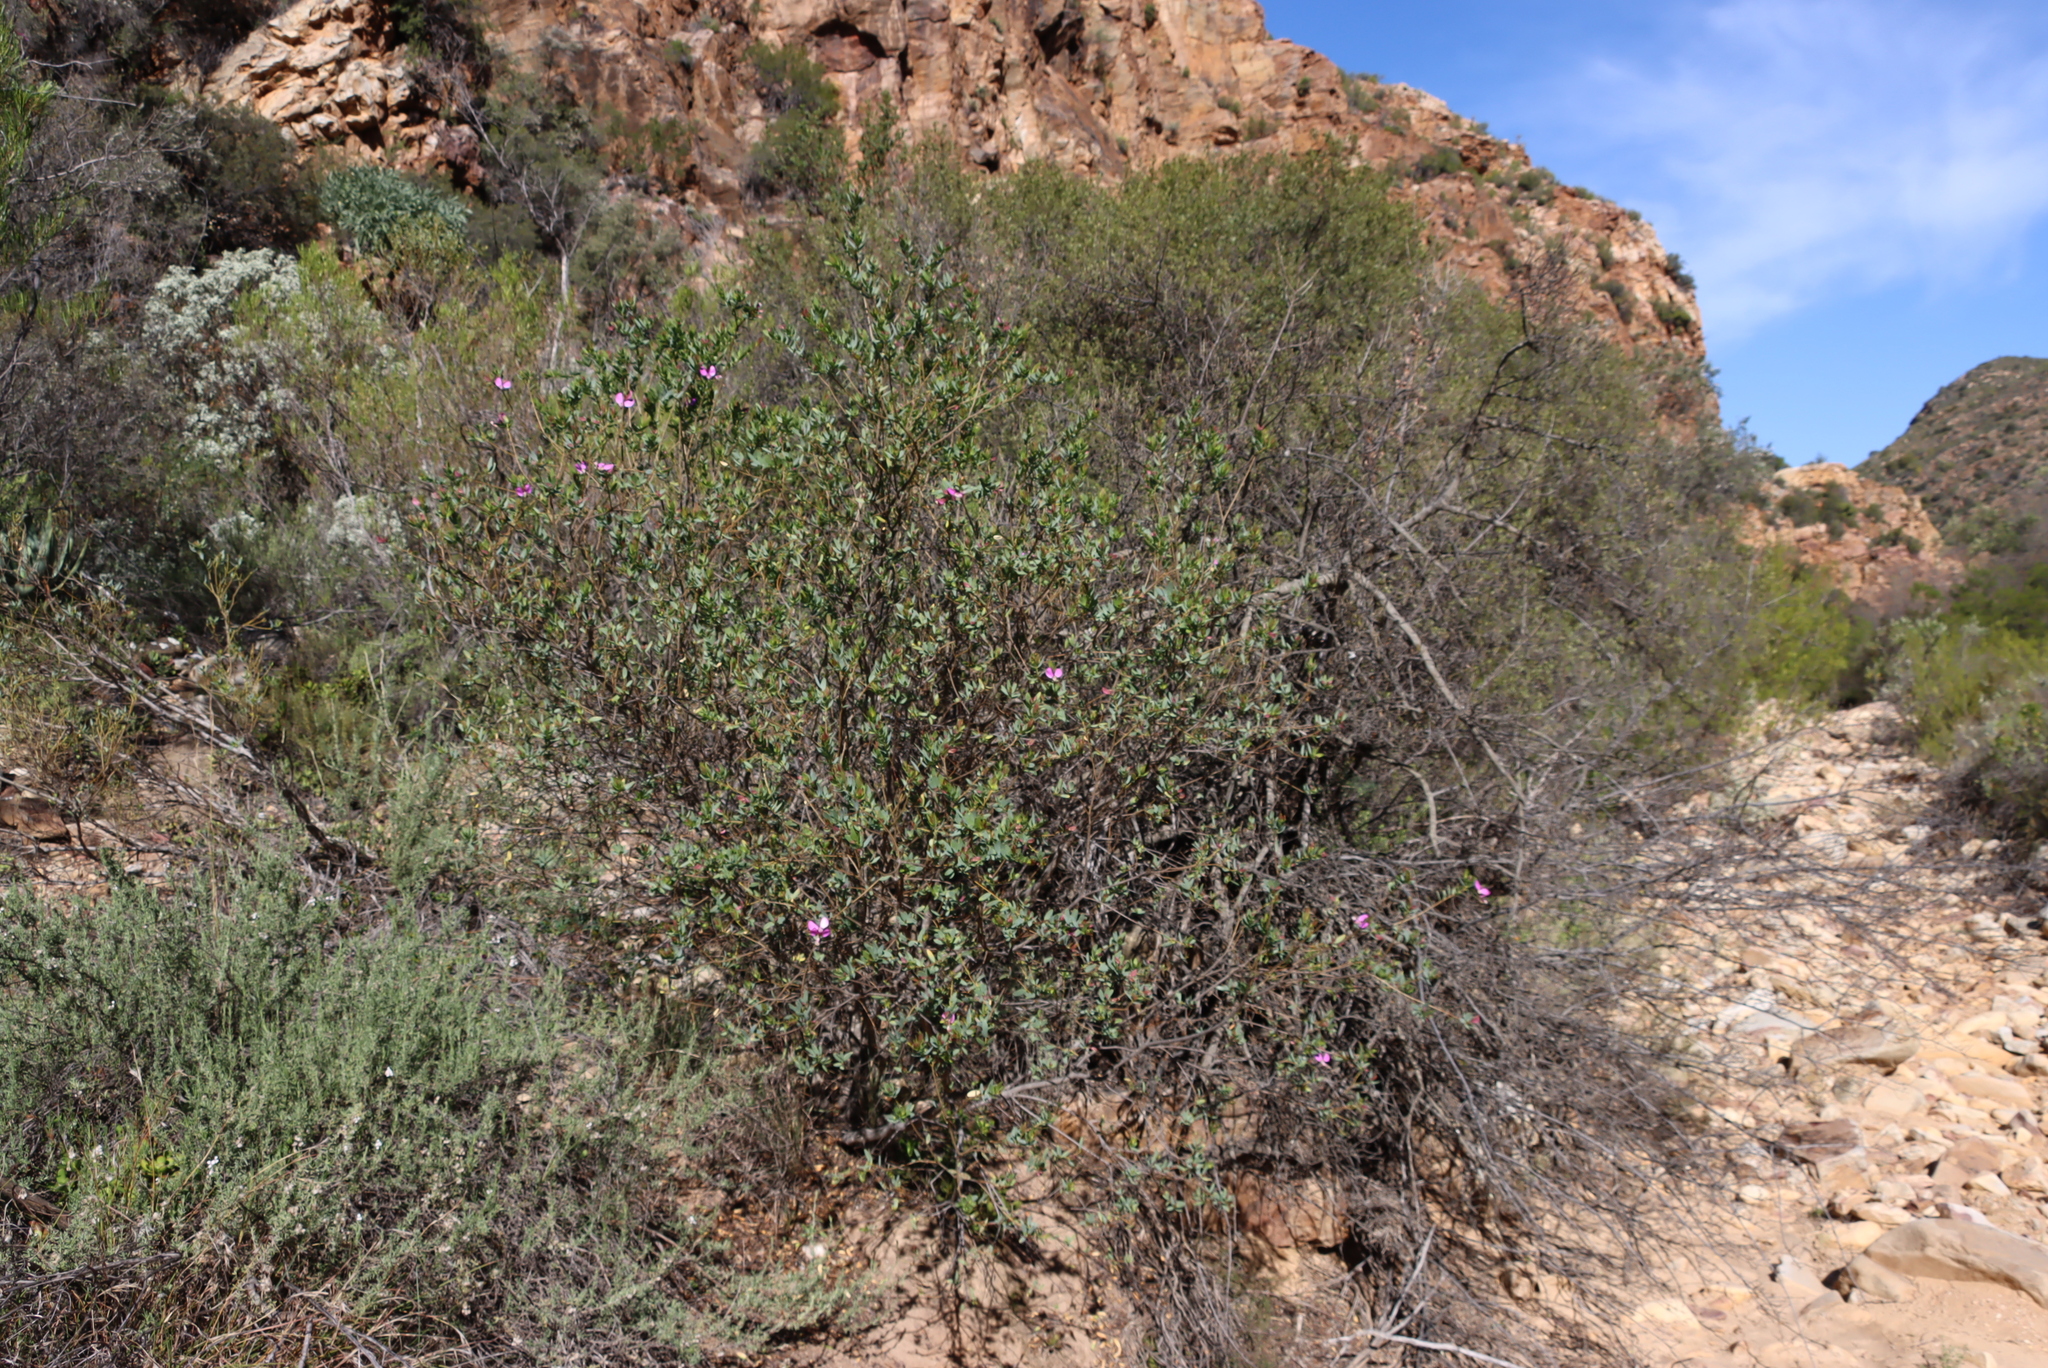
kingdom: Plantae
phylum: Tracheophyta
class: Magnoliopsida
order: Fabales
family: Polygalaceae
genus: Polygala
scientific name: Polygala myrtifolia
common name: Myrtle-leaf milkwort
